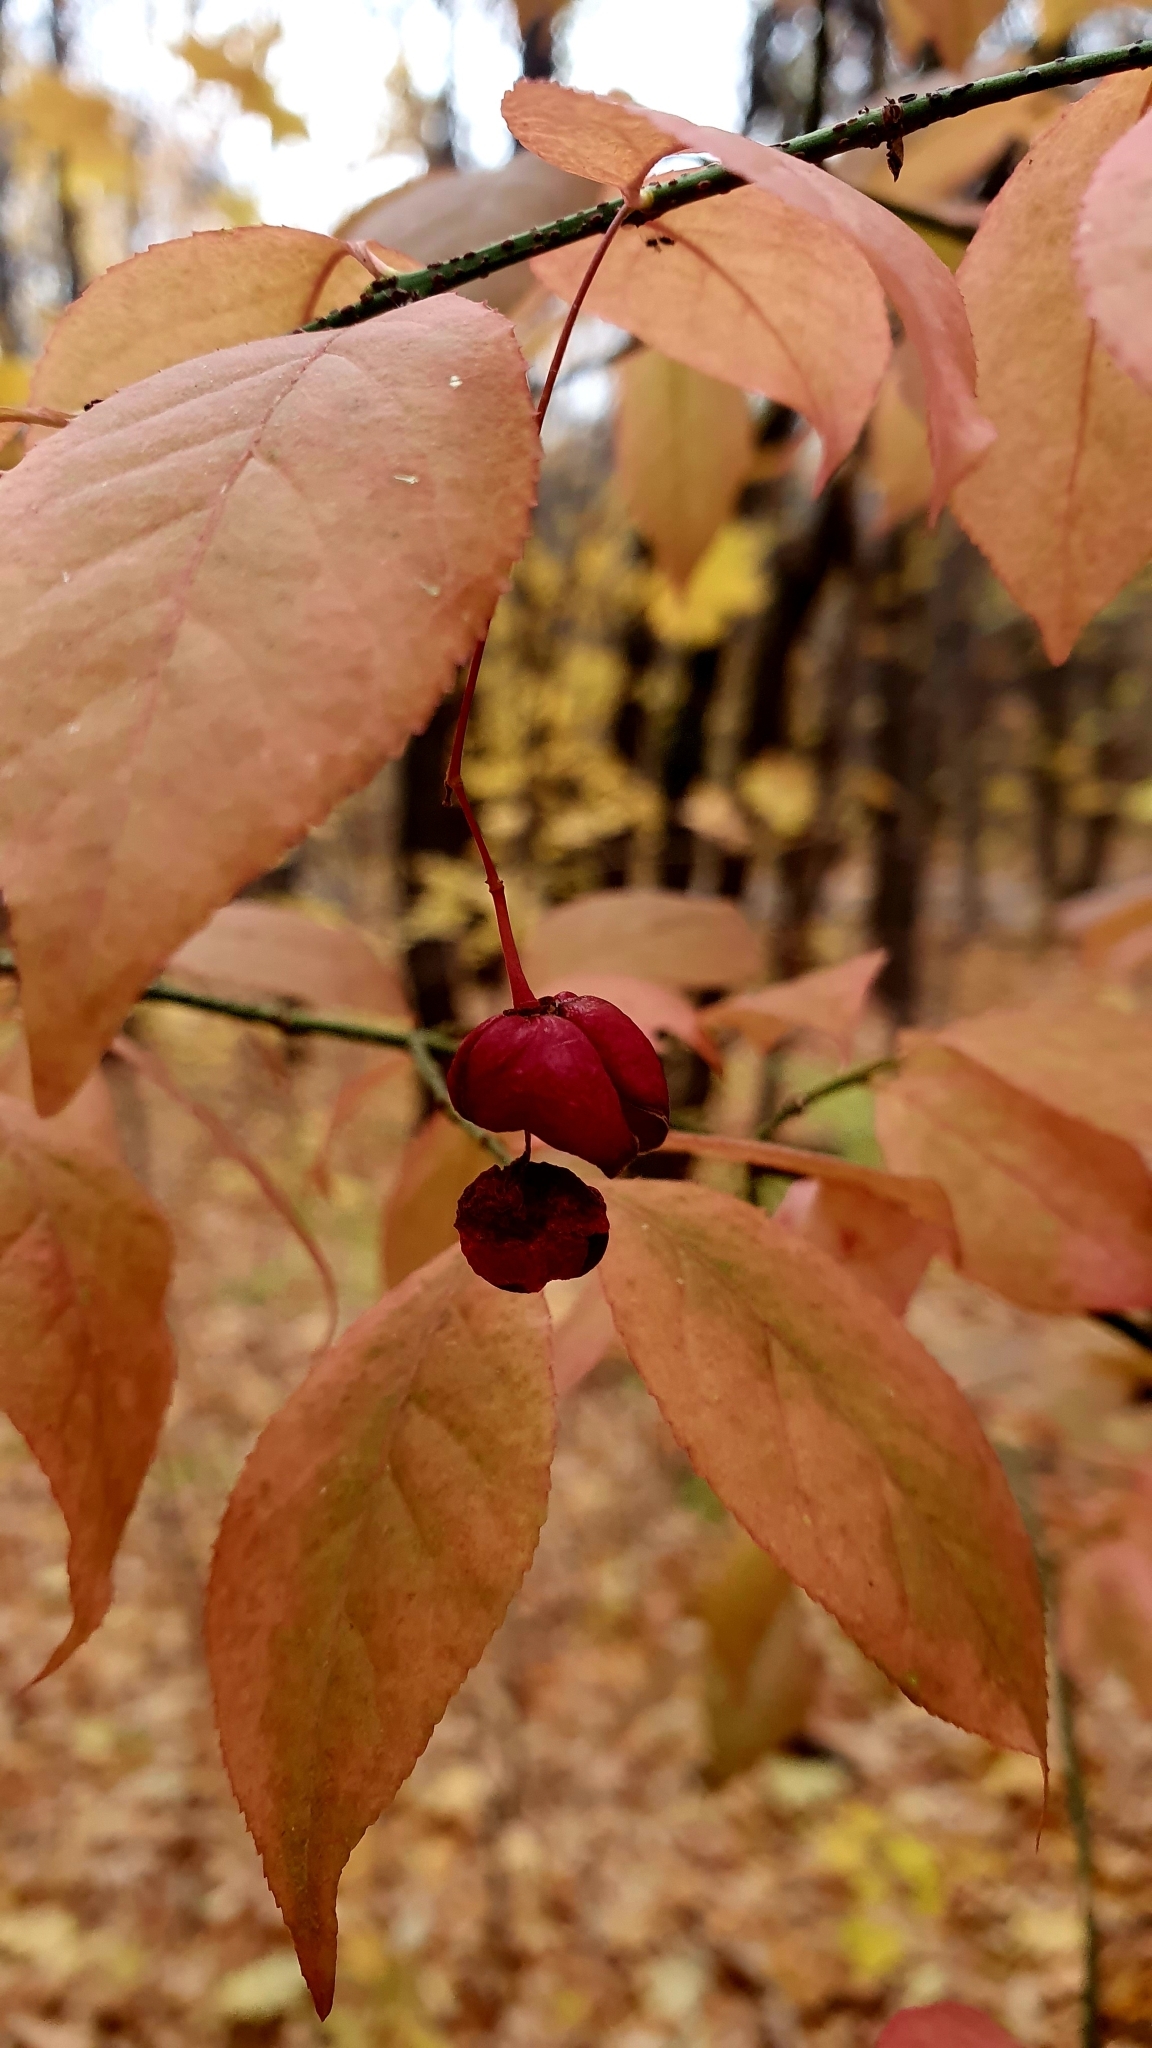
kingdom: Plantae
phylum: Tracheophyta
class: Magnoliopsida
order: Celastrales
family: Celastraceae
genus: Euonymus
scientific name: Euonymus verrucosus
